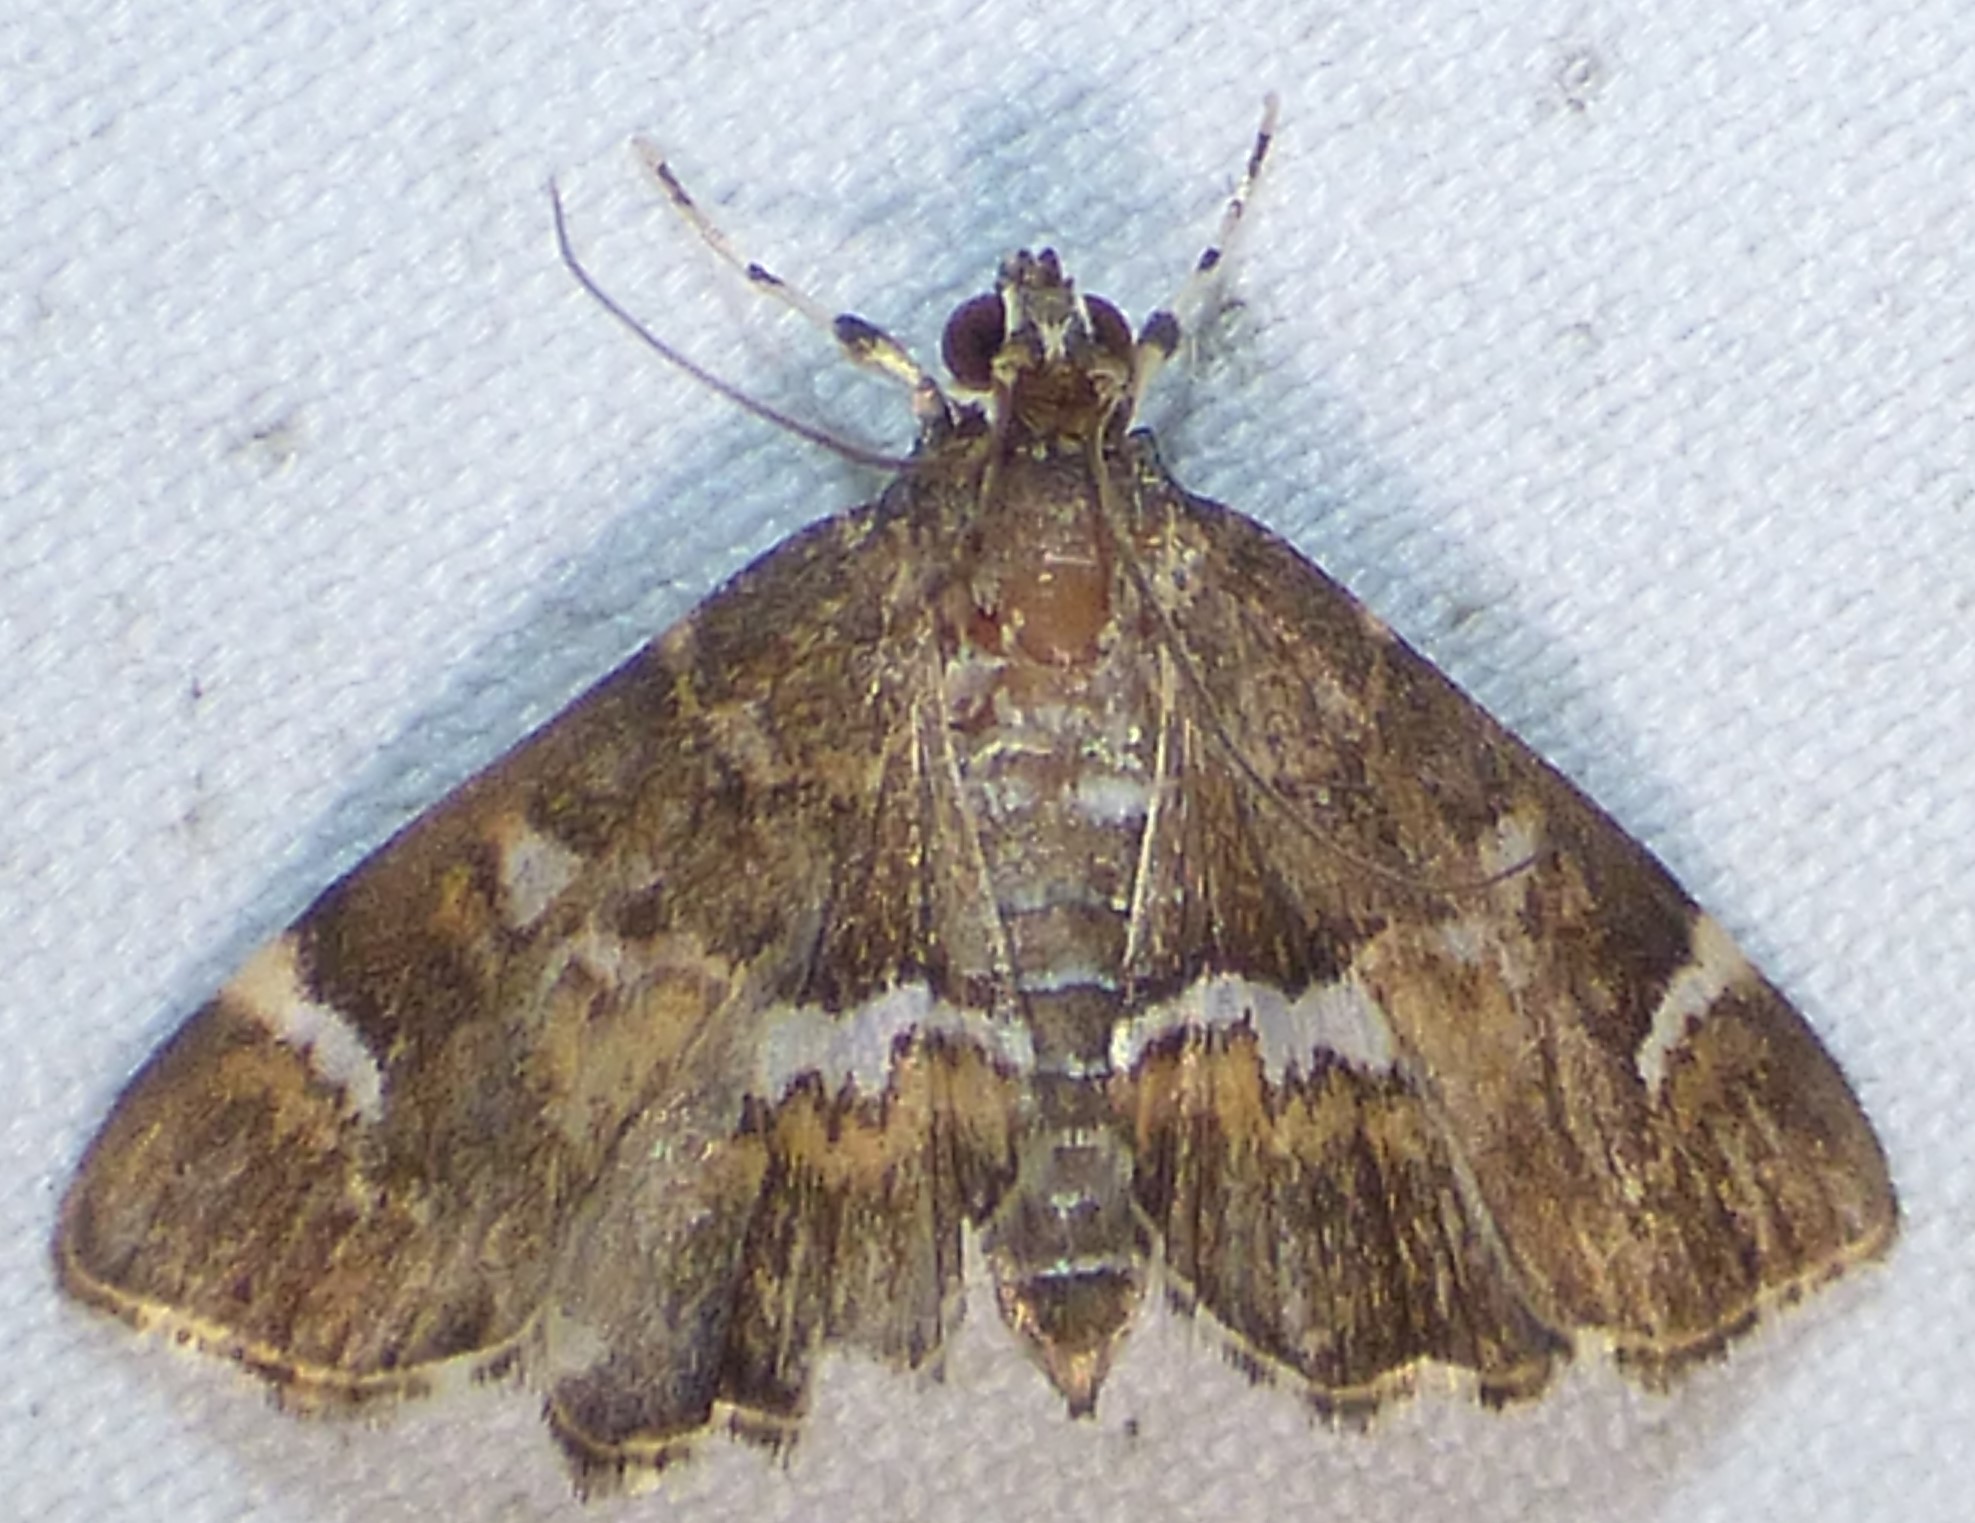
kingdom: Animalia
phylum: Arthropoda
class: Insecta
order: Lepidoptera
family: Crambidae
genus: Hymenia
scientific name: Hymenia perspectalis
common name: Spotted beet webworm
